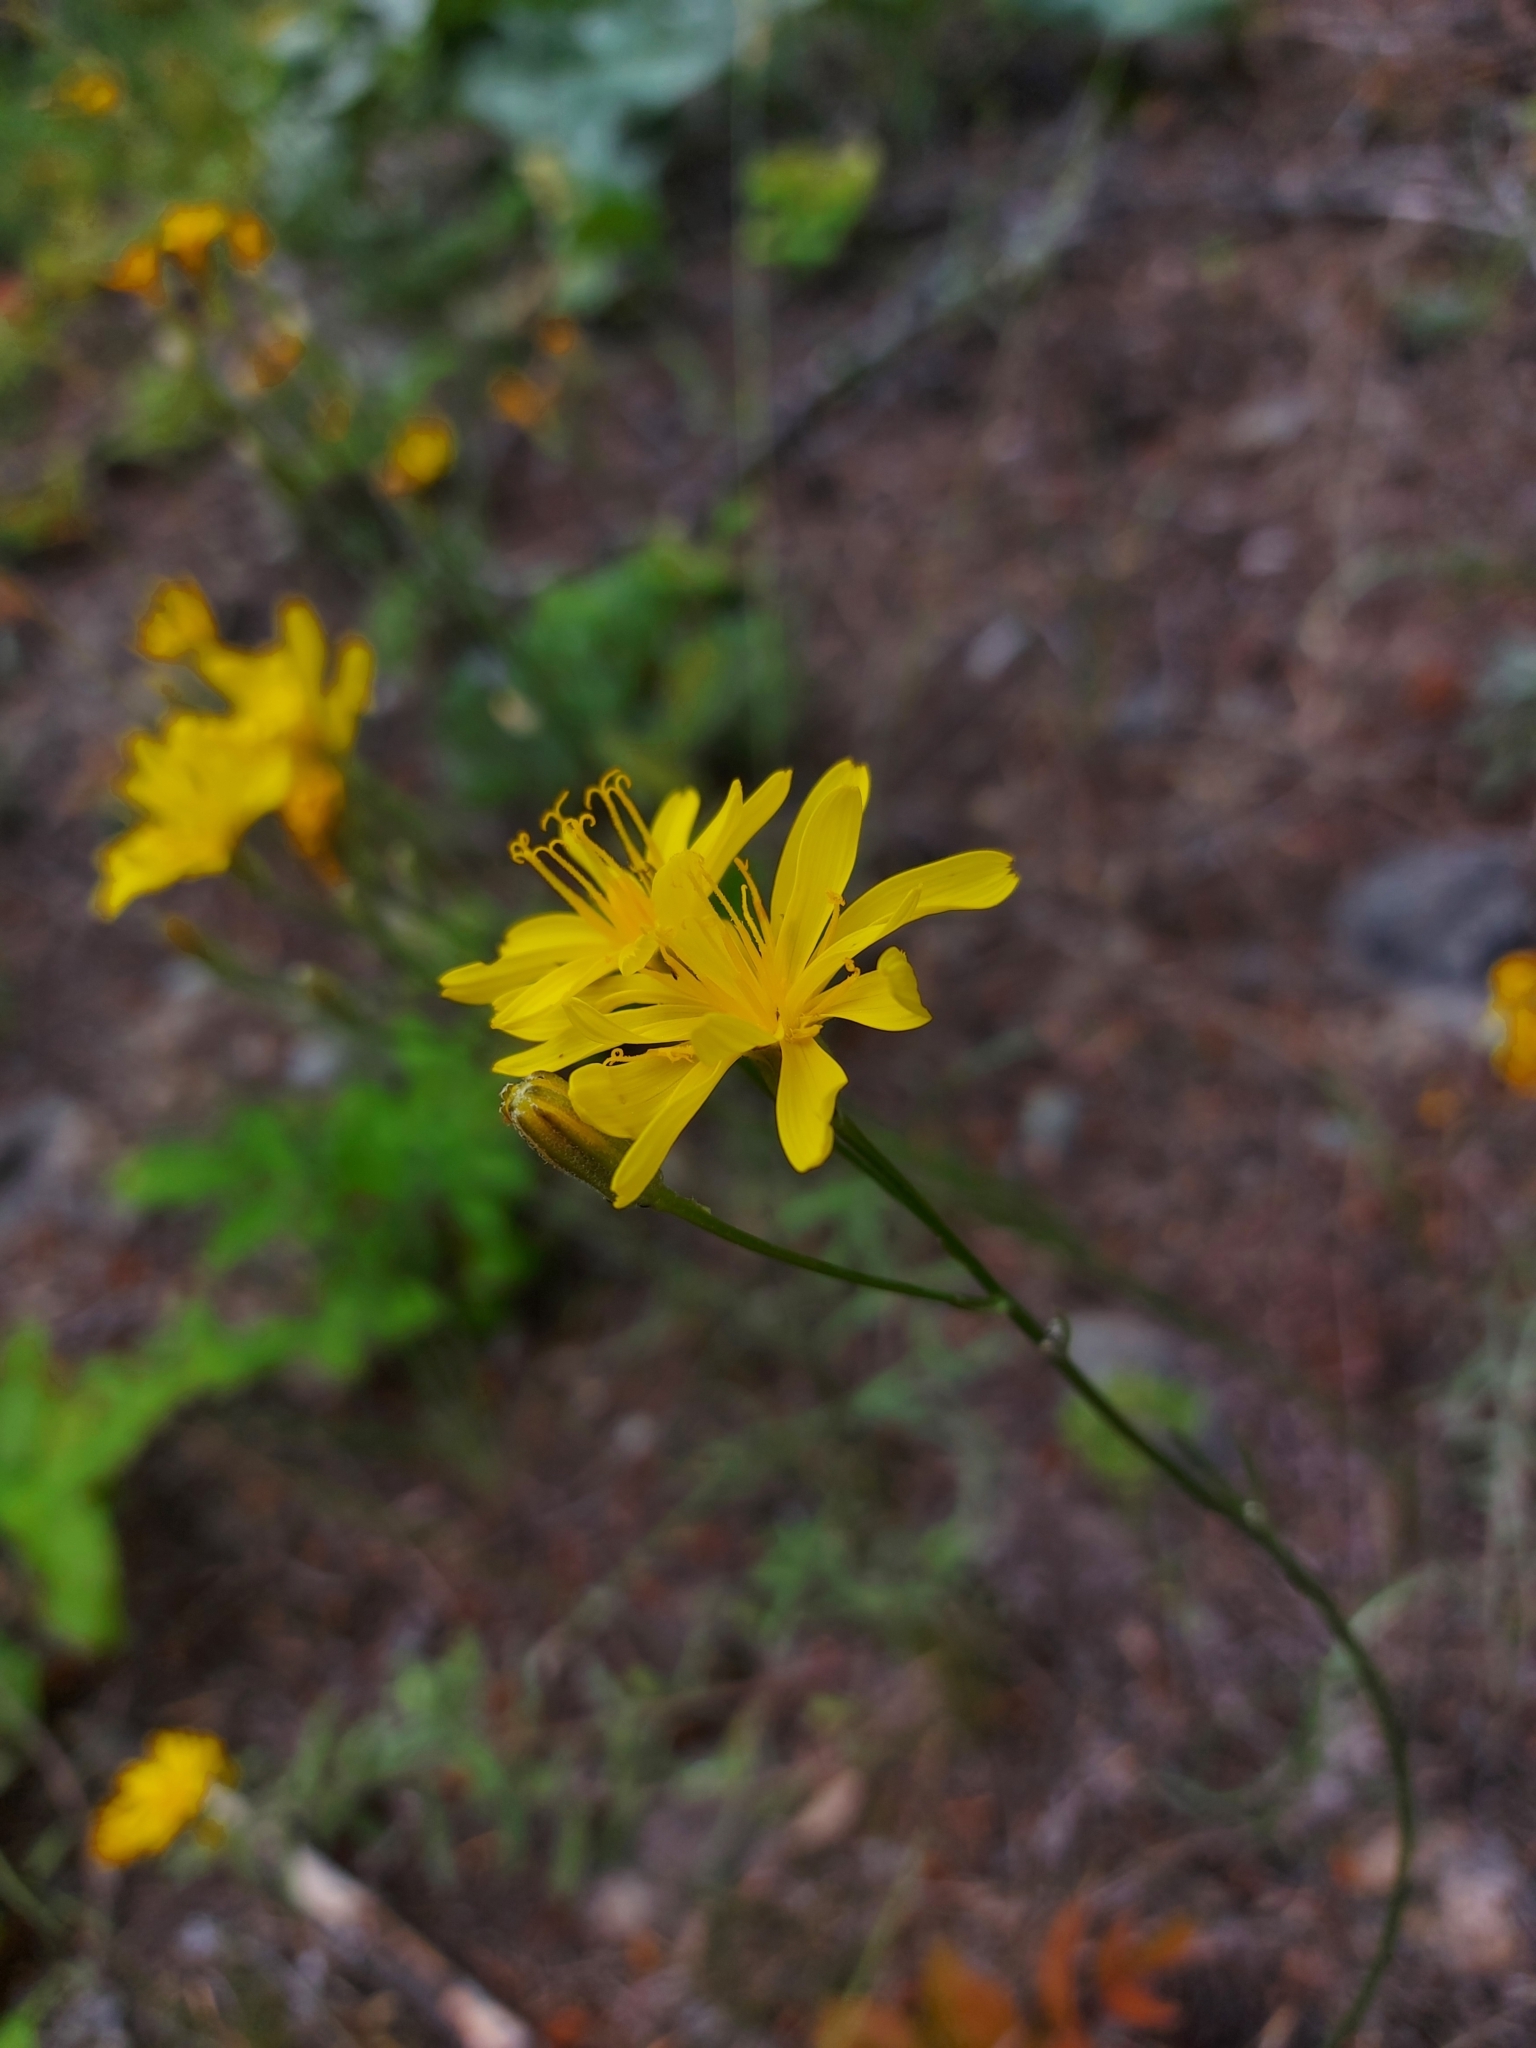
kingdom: Plantae
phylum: Tracheophyta
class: Magnoliopsida
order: Asterales
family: Asteraceae
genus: Crepis
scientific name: Crepis atribarba
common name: Dark hawk's-beard
